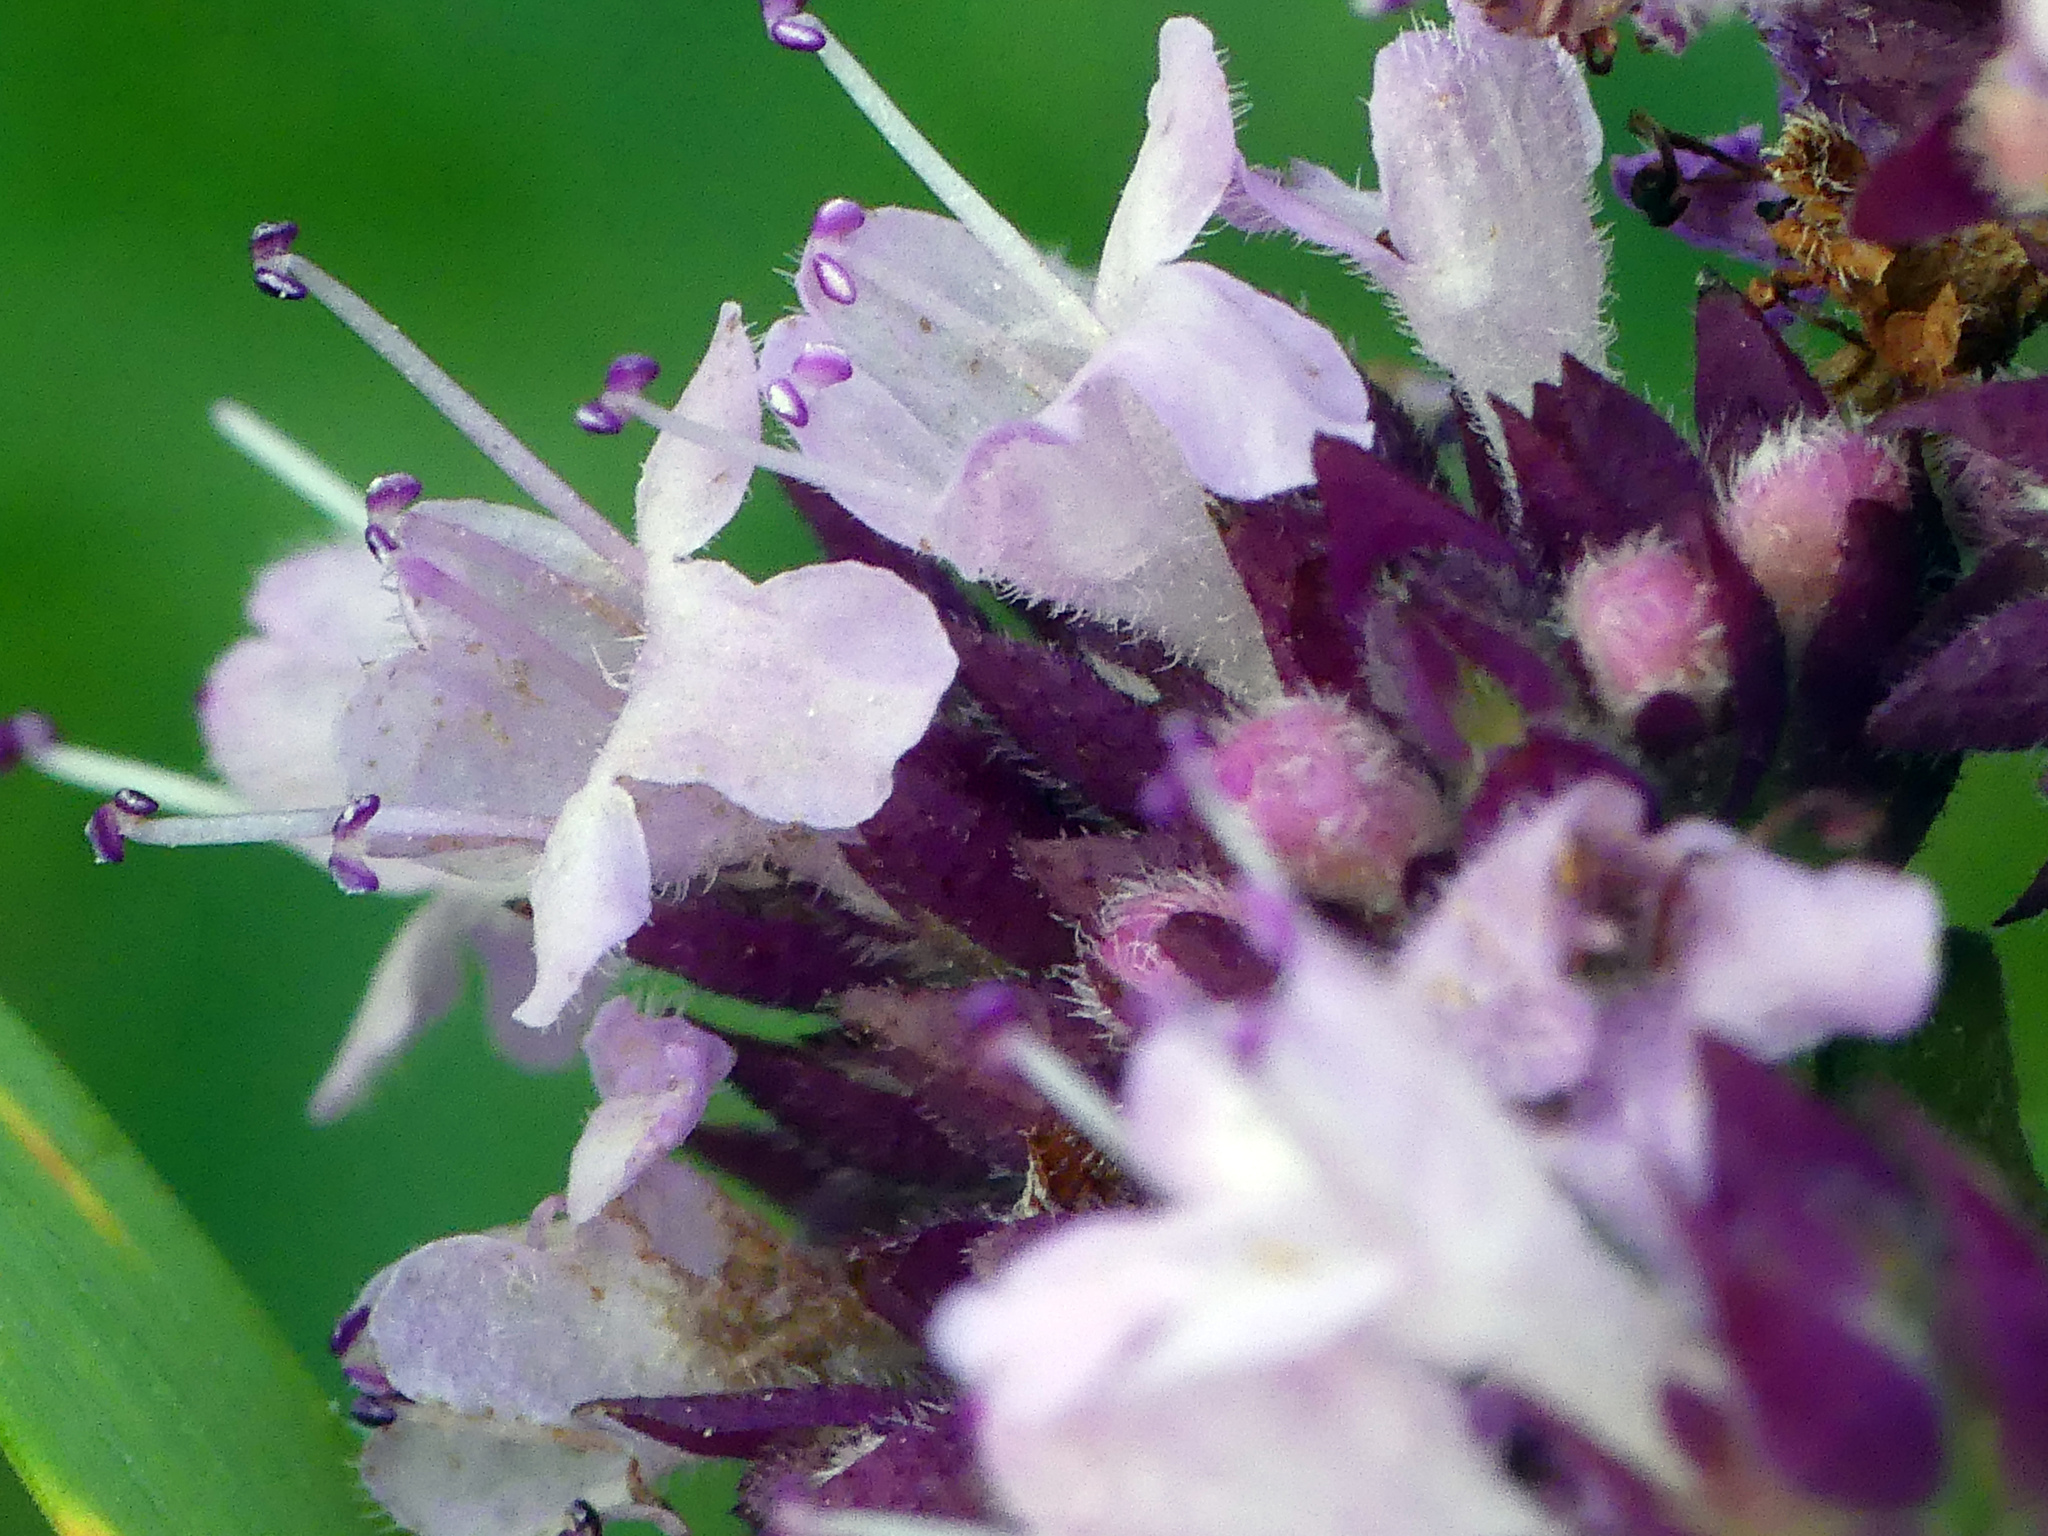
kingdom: Plantae
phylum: Tracheophyta
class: Magnoliopsida
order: Lamiales
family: Lamiaceae
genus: Origanum
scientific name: Origanum vulgare
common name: Wild marjoram
